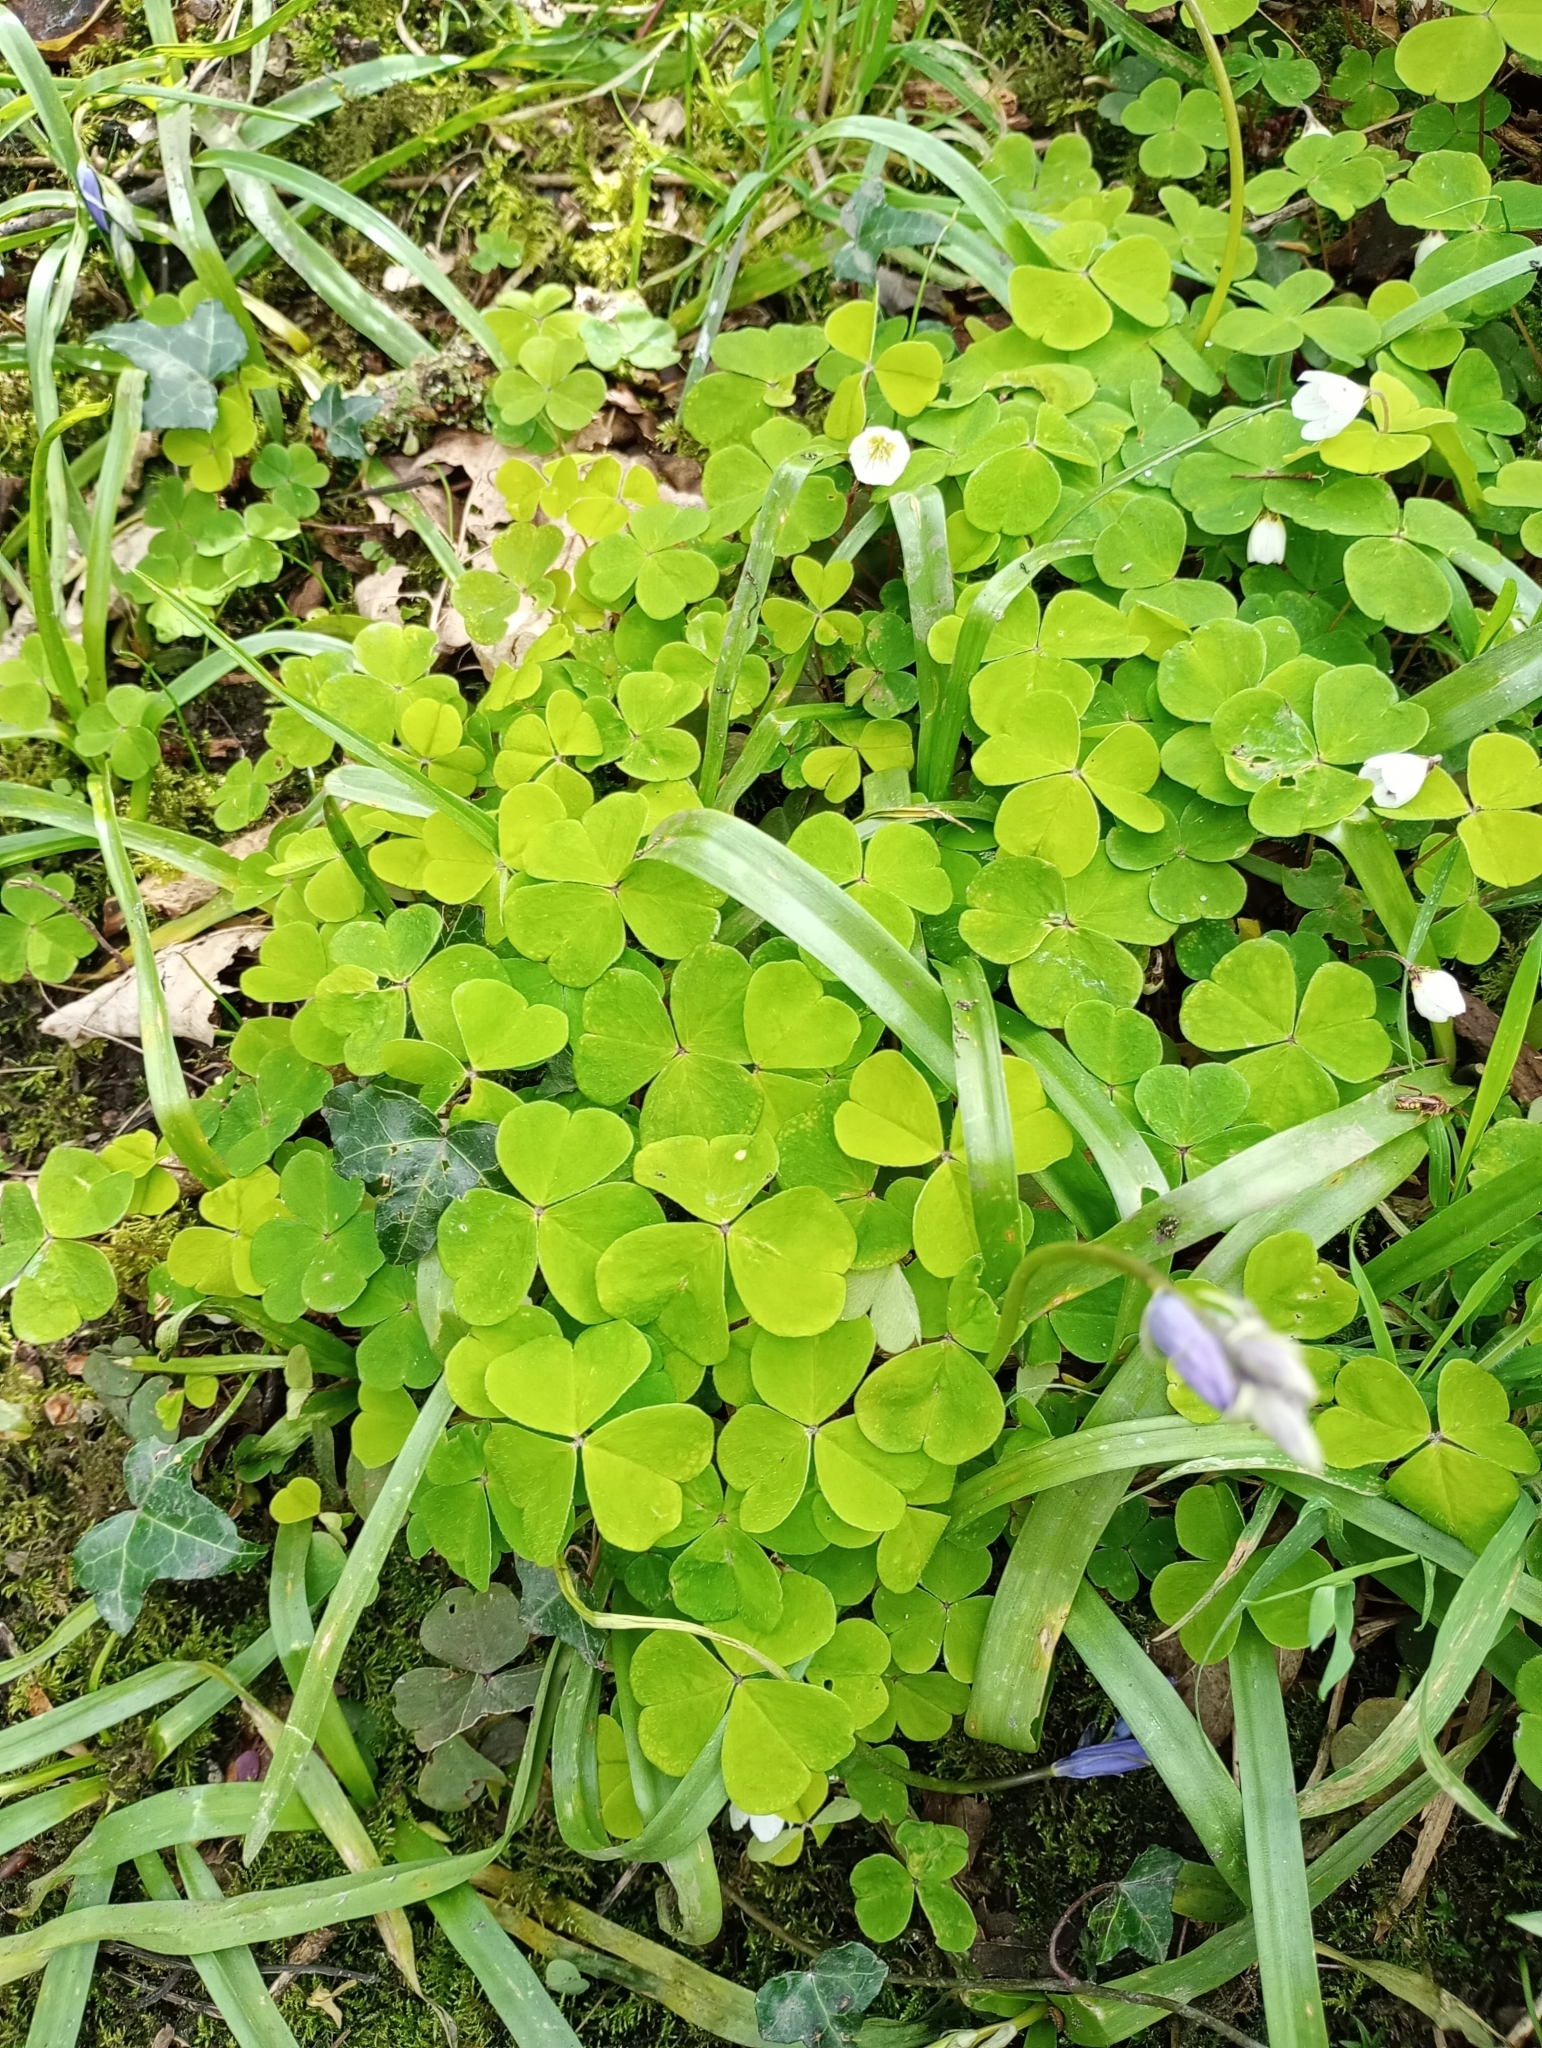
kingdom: Plantae
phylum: Tracheophyta
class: Magnoliopsida
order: Oxalidales
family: Oxalidaceae
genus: Oxalis
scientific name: Oxalis acetosella
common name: Wood-sorrel
